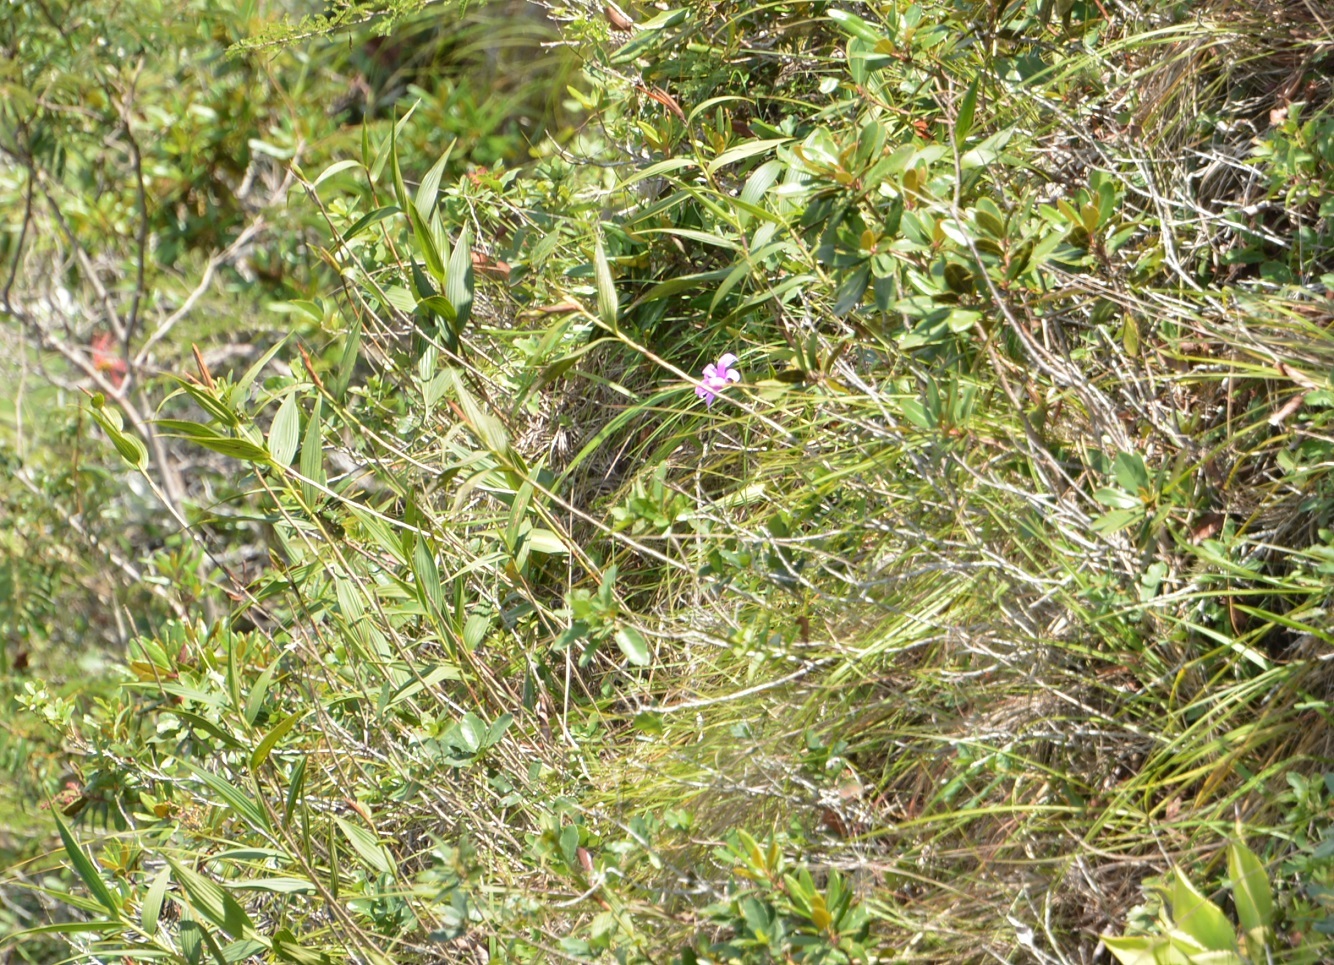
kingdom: Plantae
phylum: Tracheophyta
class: Liliopsida
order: Asparagales
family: Orchidaceae
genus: Sobralia
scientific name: Sobralia macrantha
